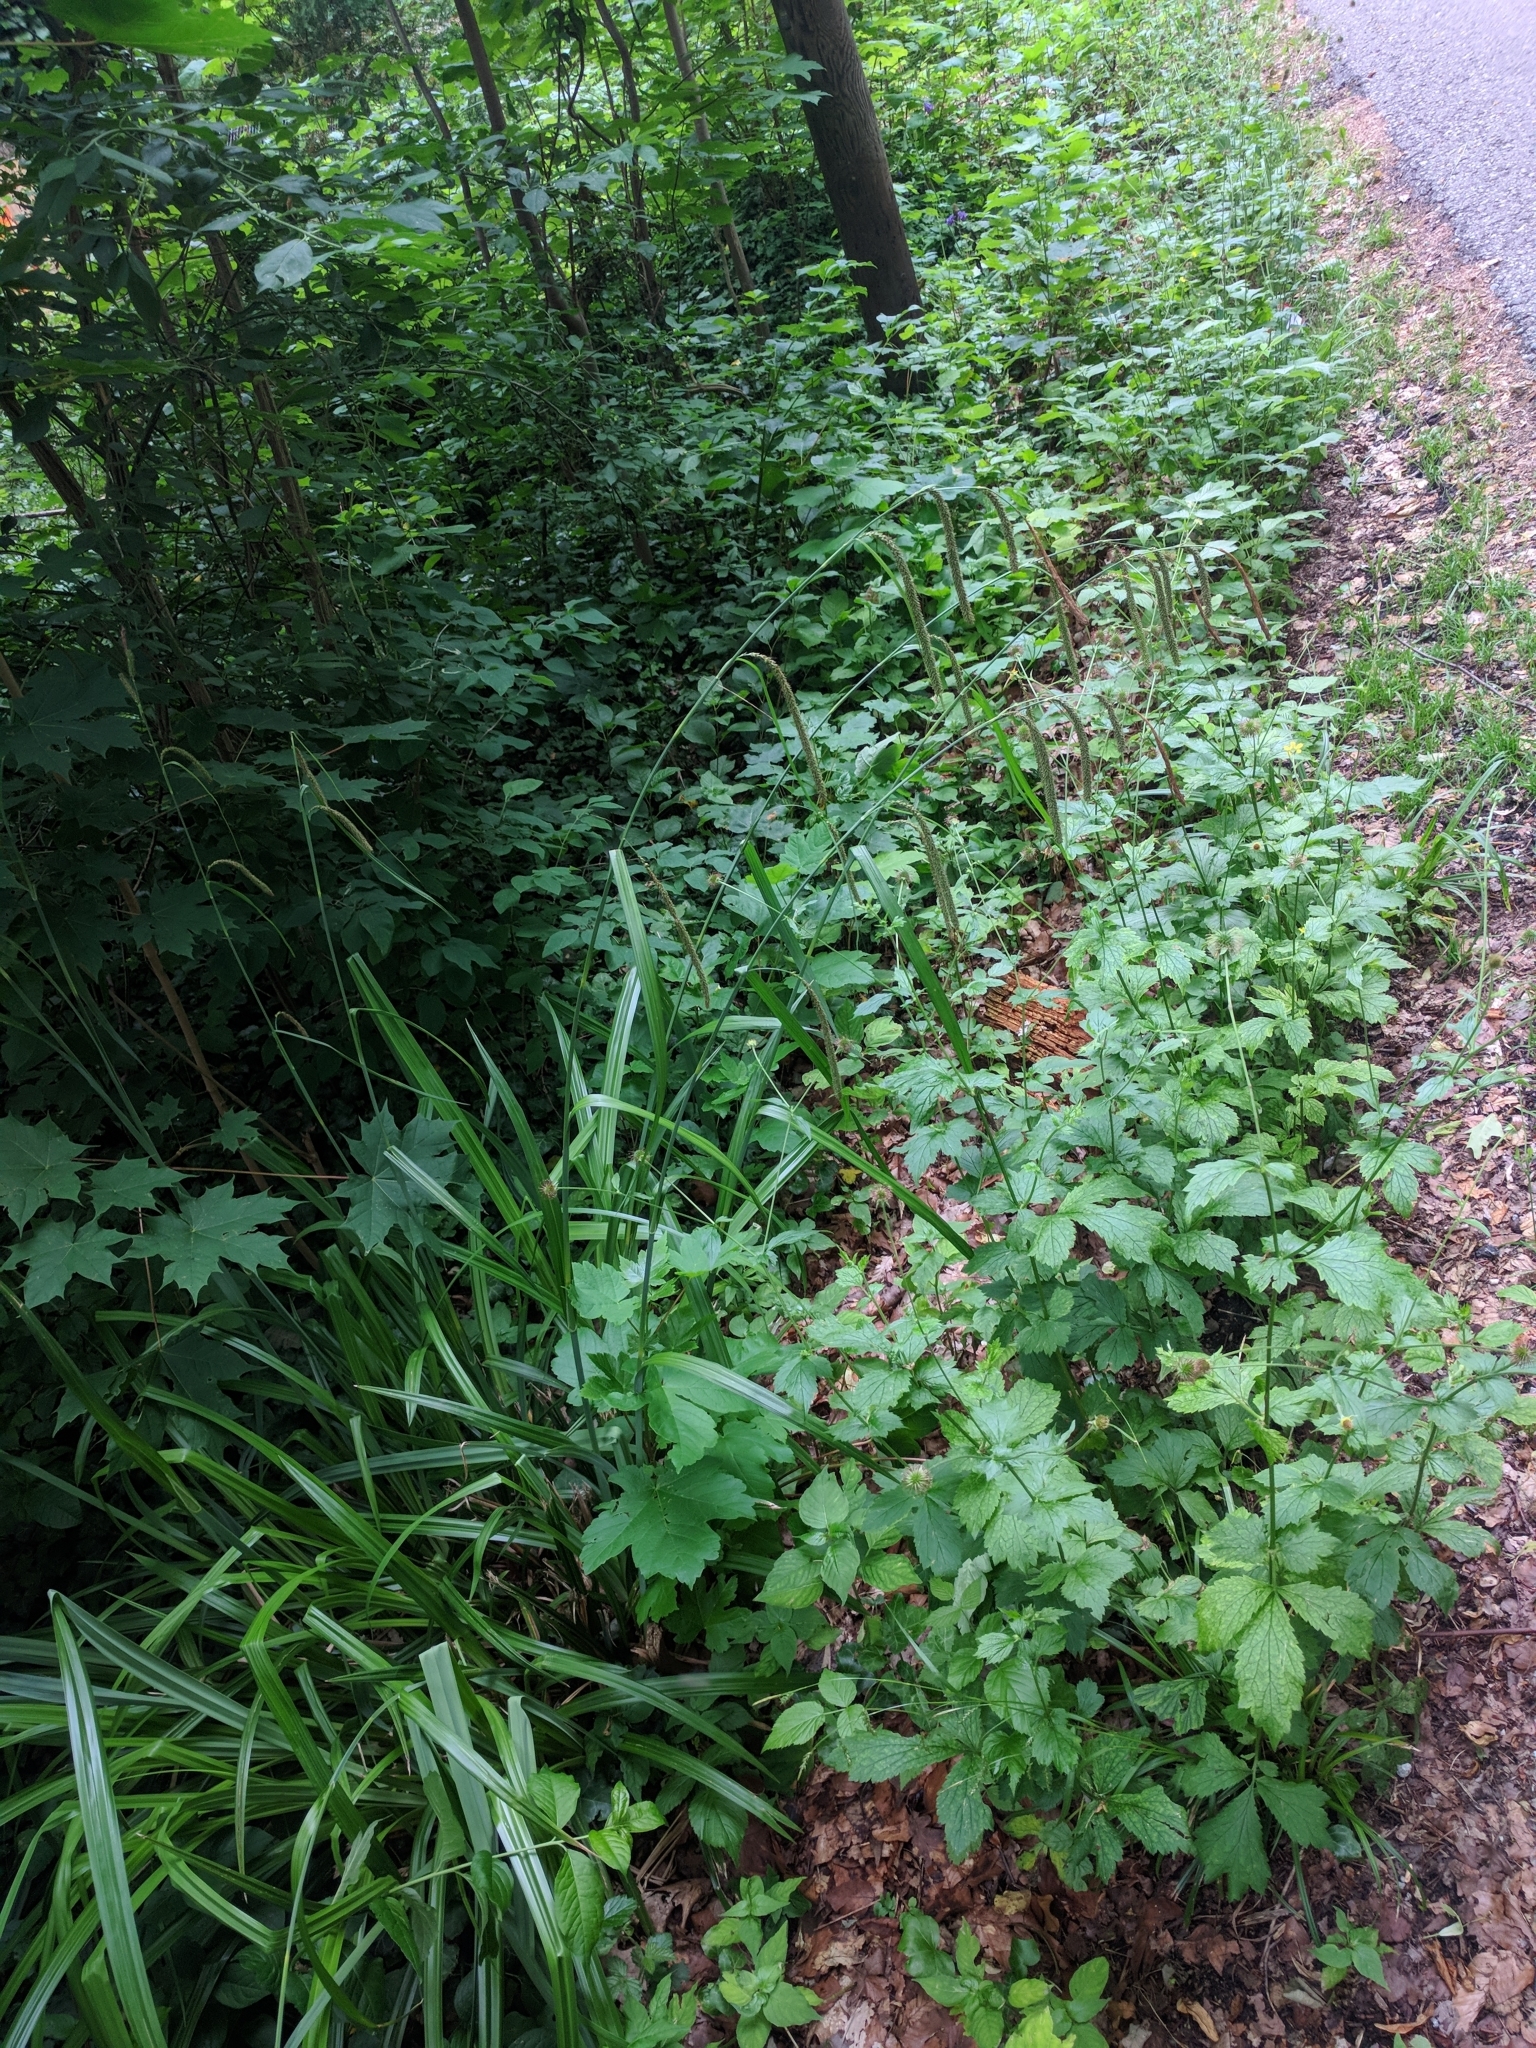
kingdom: Plantae
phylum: Tracheophyta
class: Liliopsida
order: Poales
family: Cyperaceae
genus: Carex
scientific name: Carex pendula
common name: Pendulous sedge
